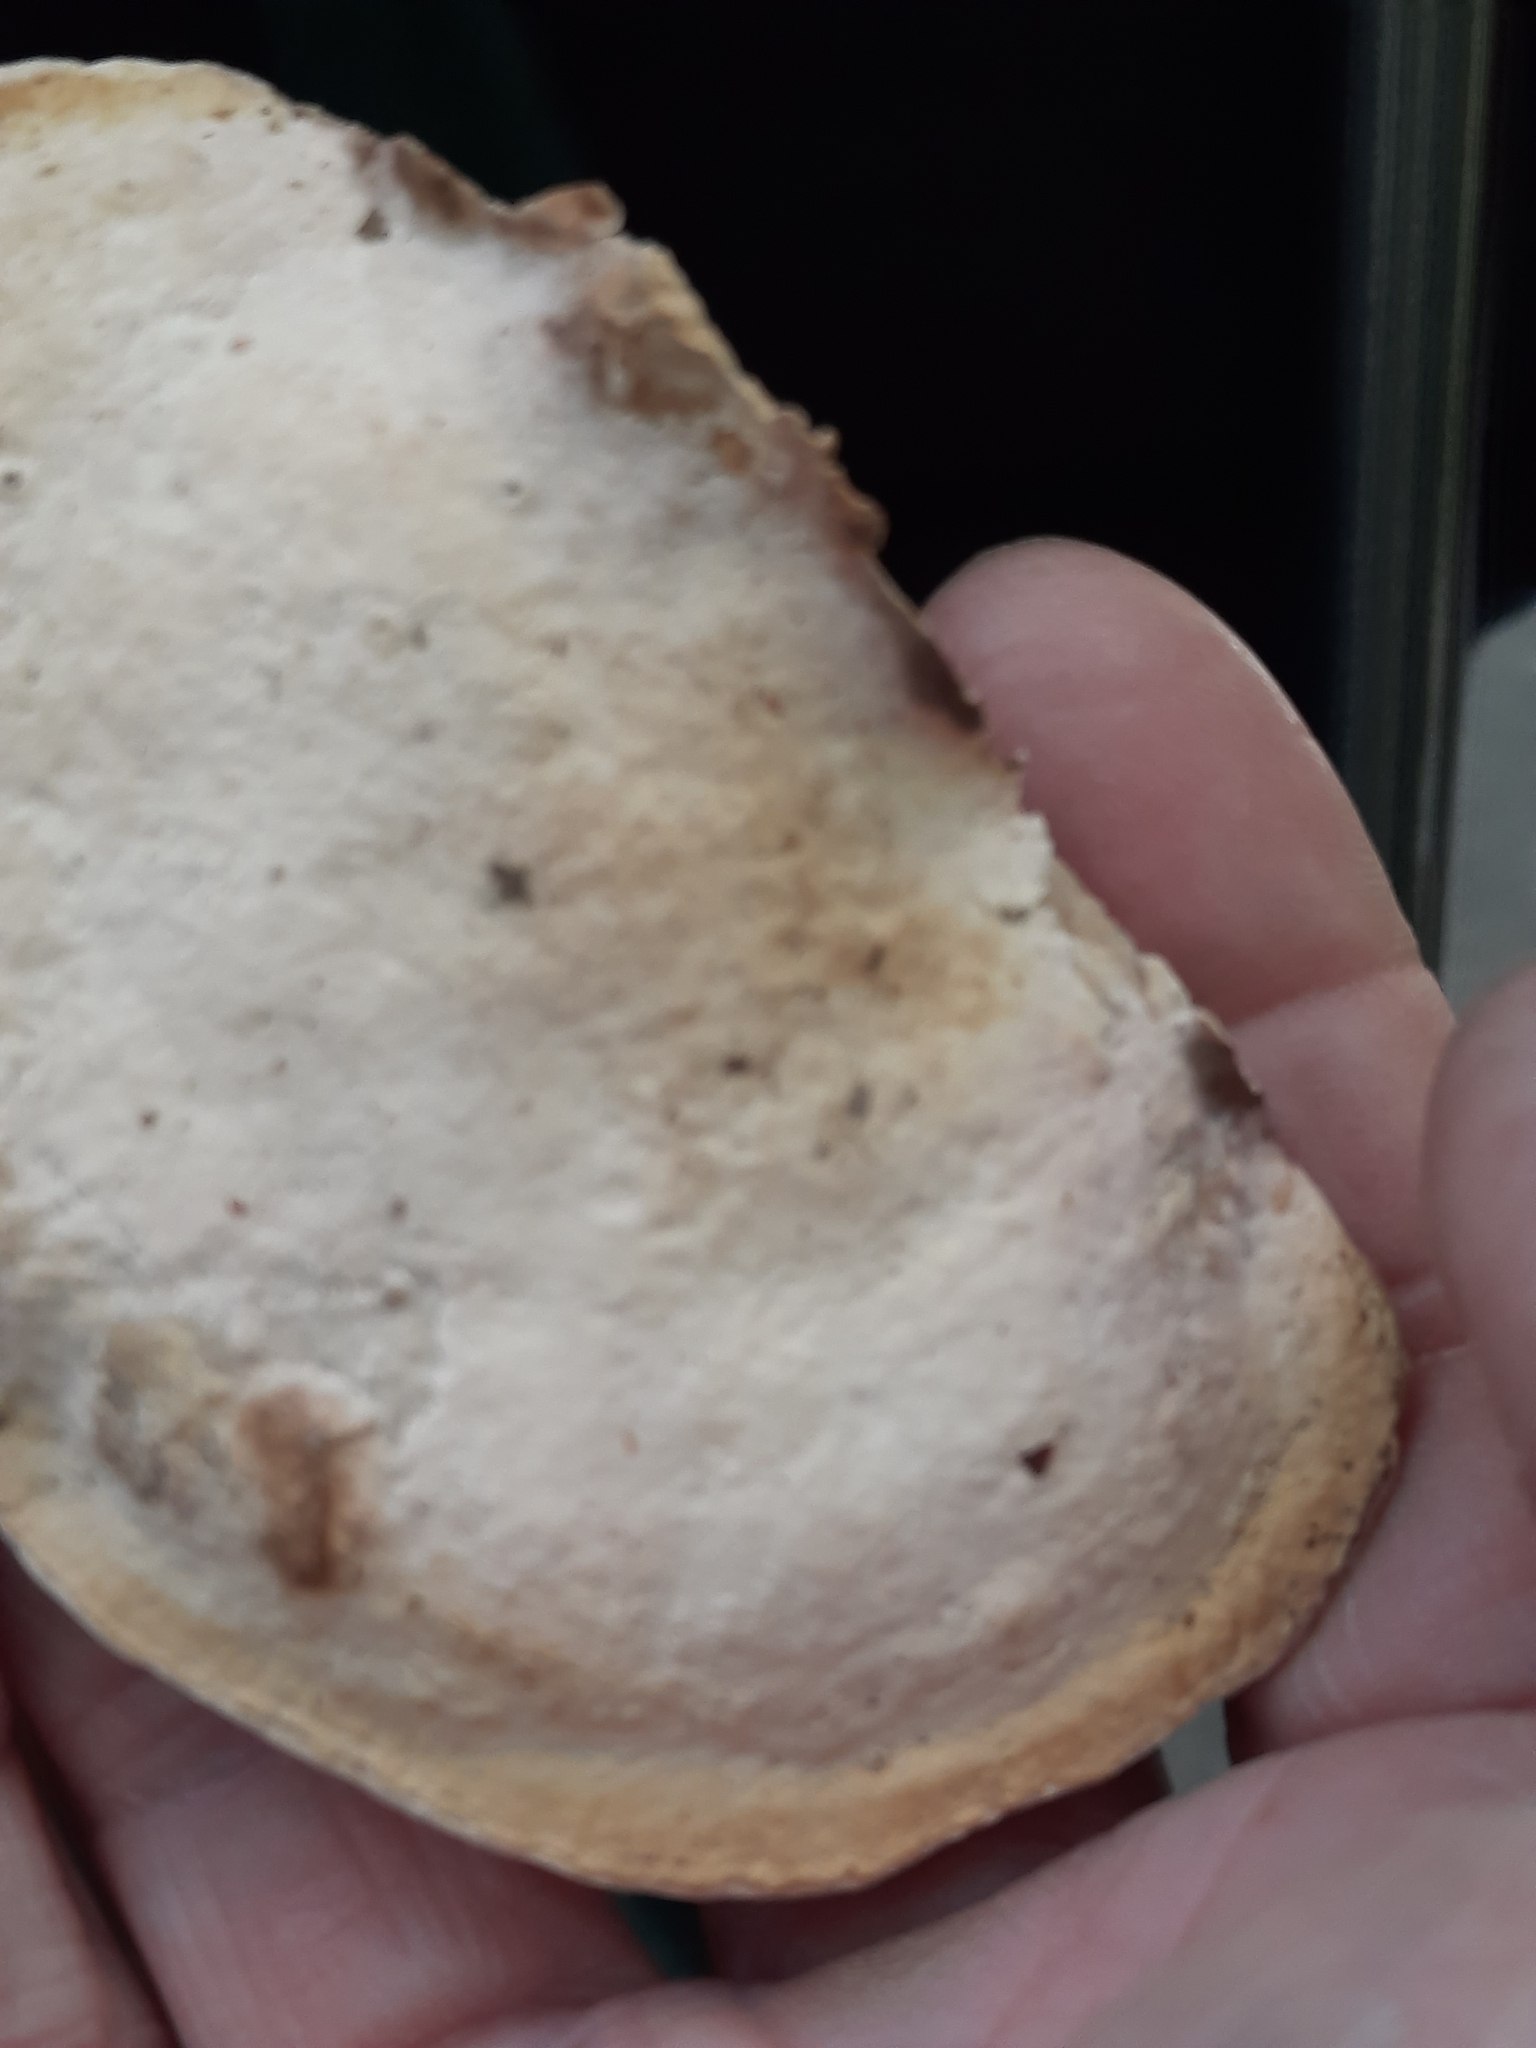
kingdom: Fungi
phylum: Basidiomycota
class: Agaricomycetes
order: Polyporales
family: Fomitopsidaceae
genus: Fomitopsis
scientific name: Fomitopsis
